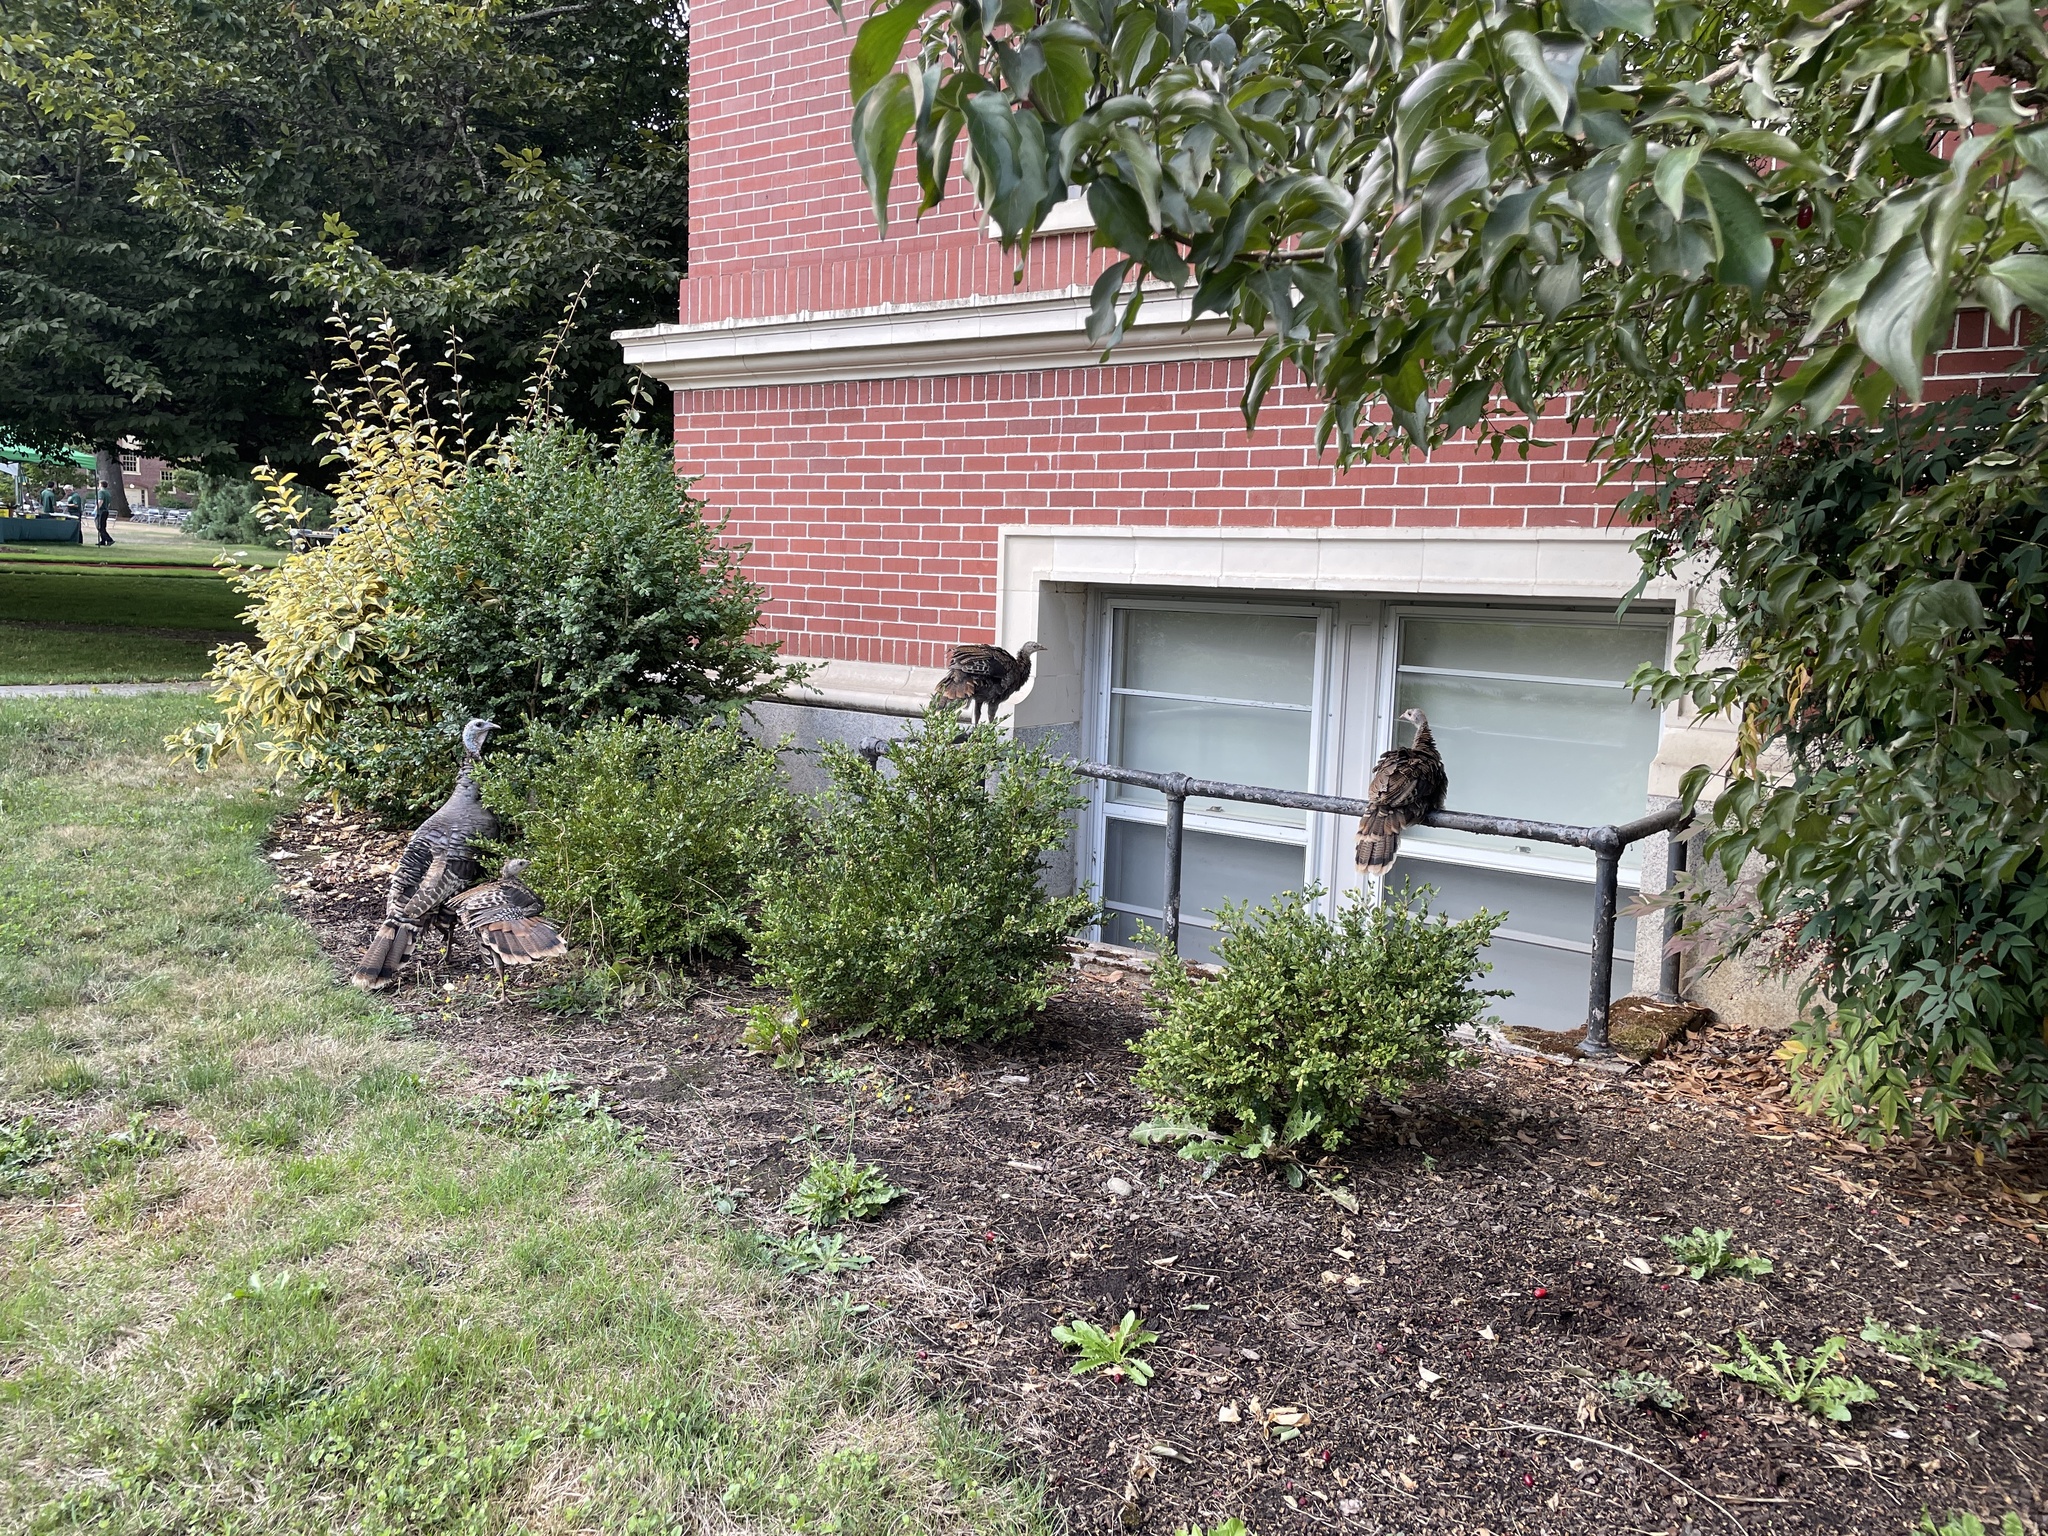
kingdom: Animalia
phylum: Chordata
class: Aves
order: Galliformes
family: Phasianidae
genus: Meleagris
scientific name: Meleagris gallopavo
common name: Wild turkey
